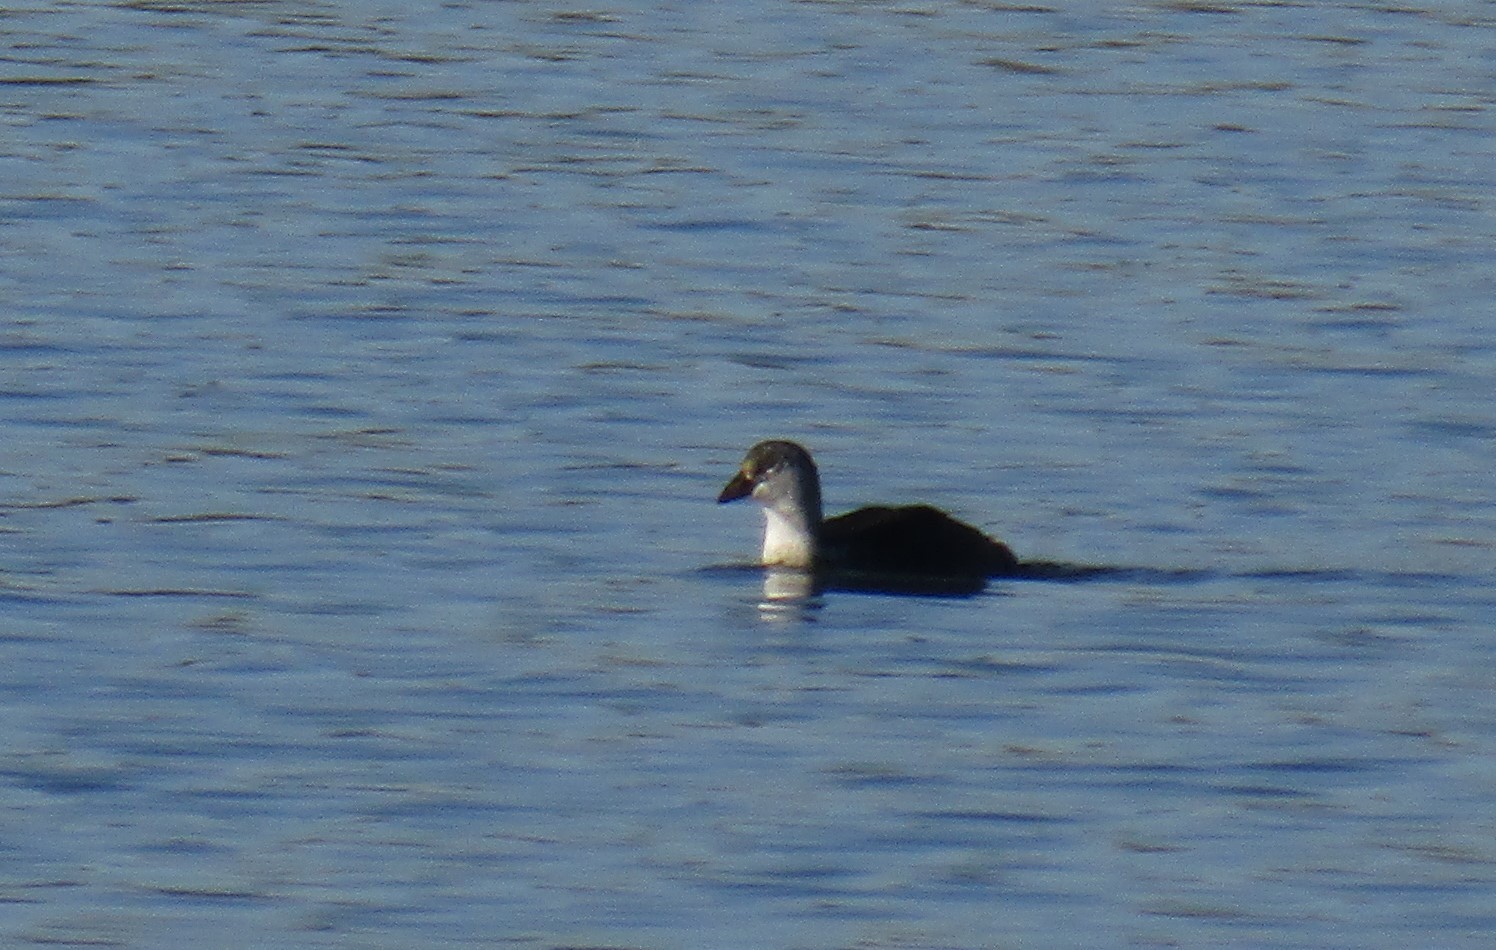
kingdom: Animalia
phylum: Chordata
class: Aves
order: Gruiformes
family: Rallidae
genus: Fulica
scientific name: Fulica armillata
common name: Red-gartered coot
